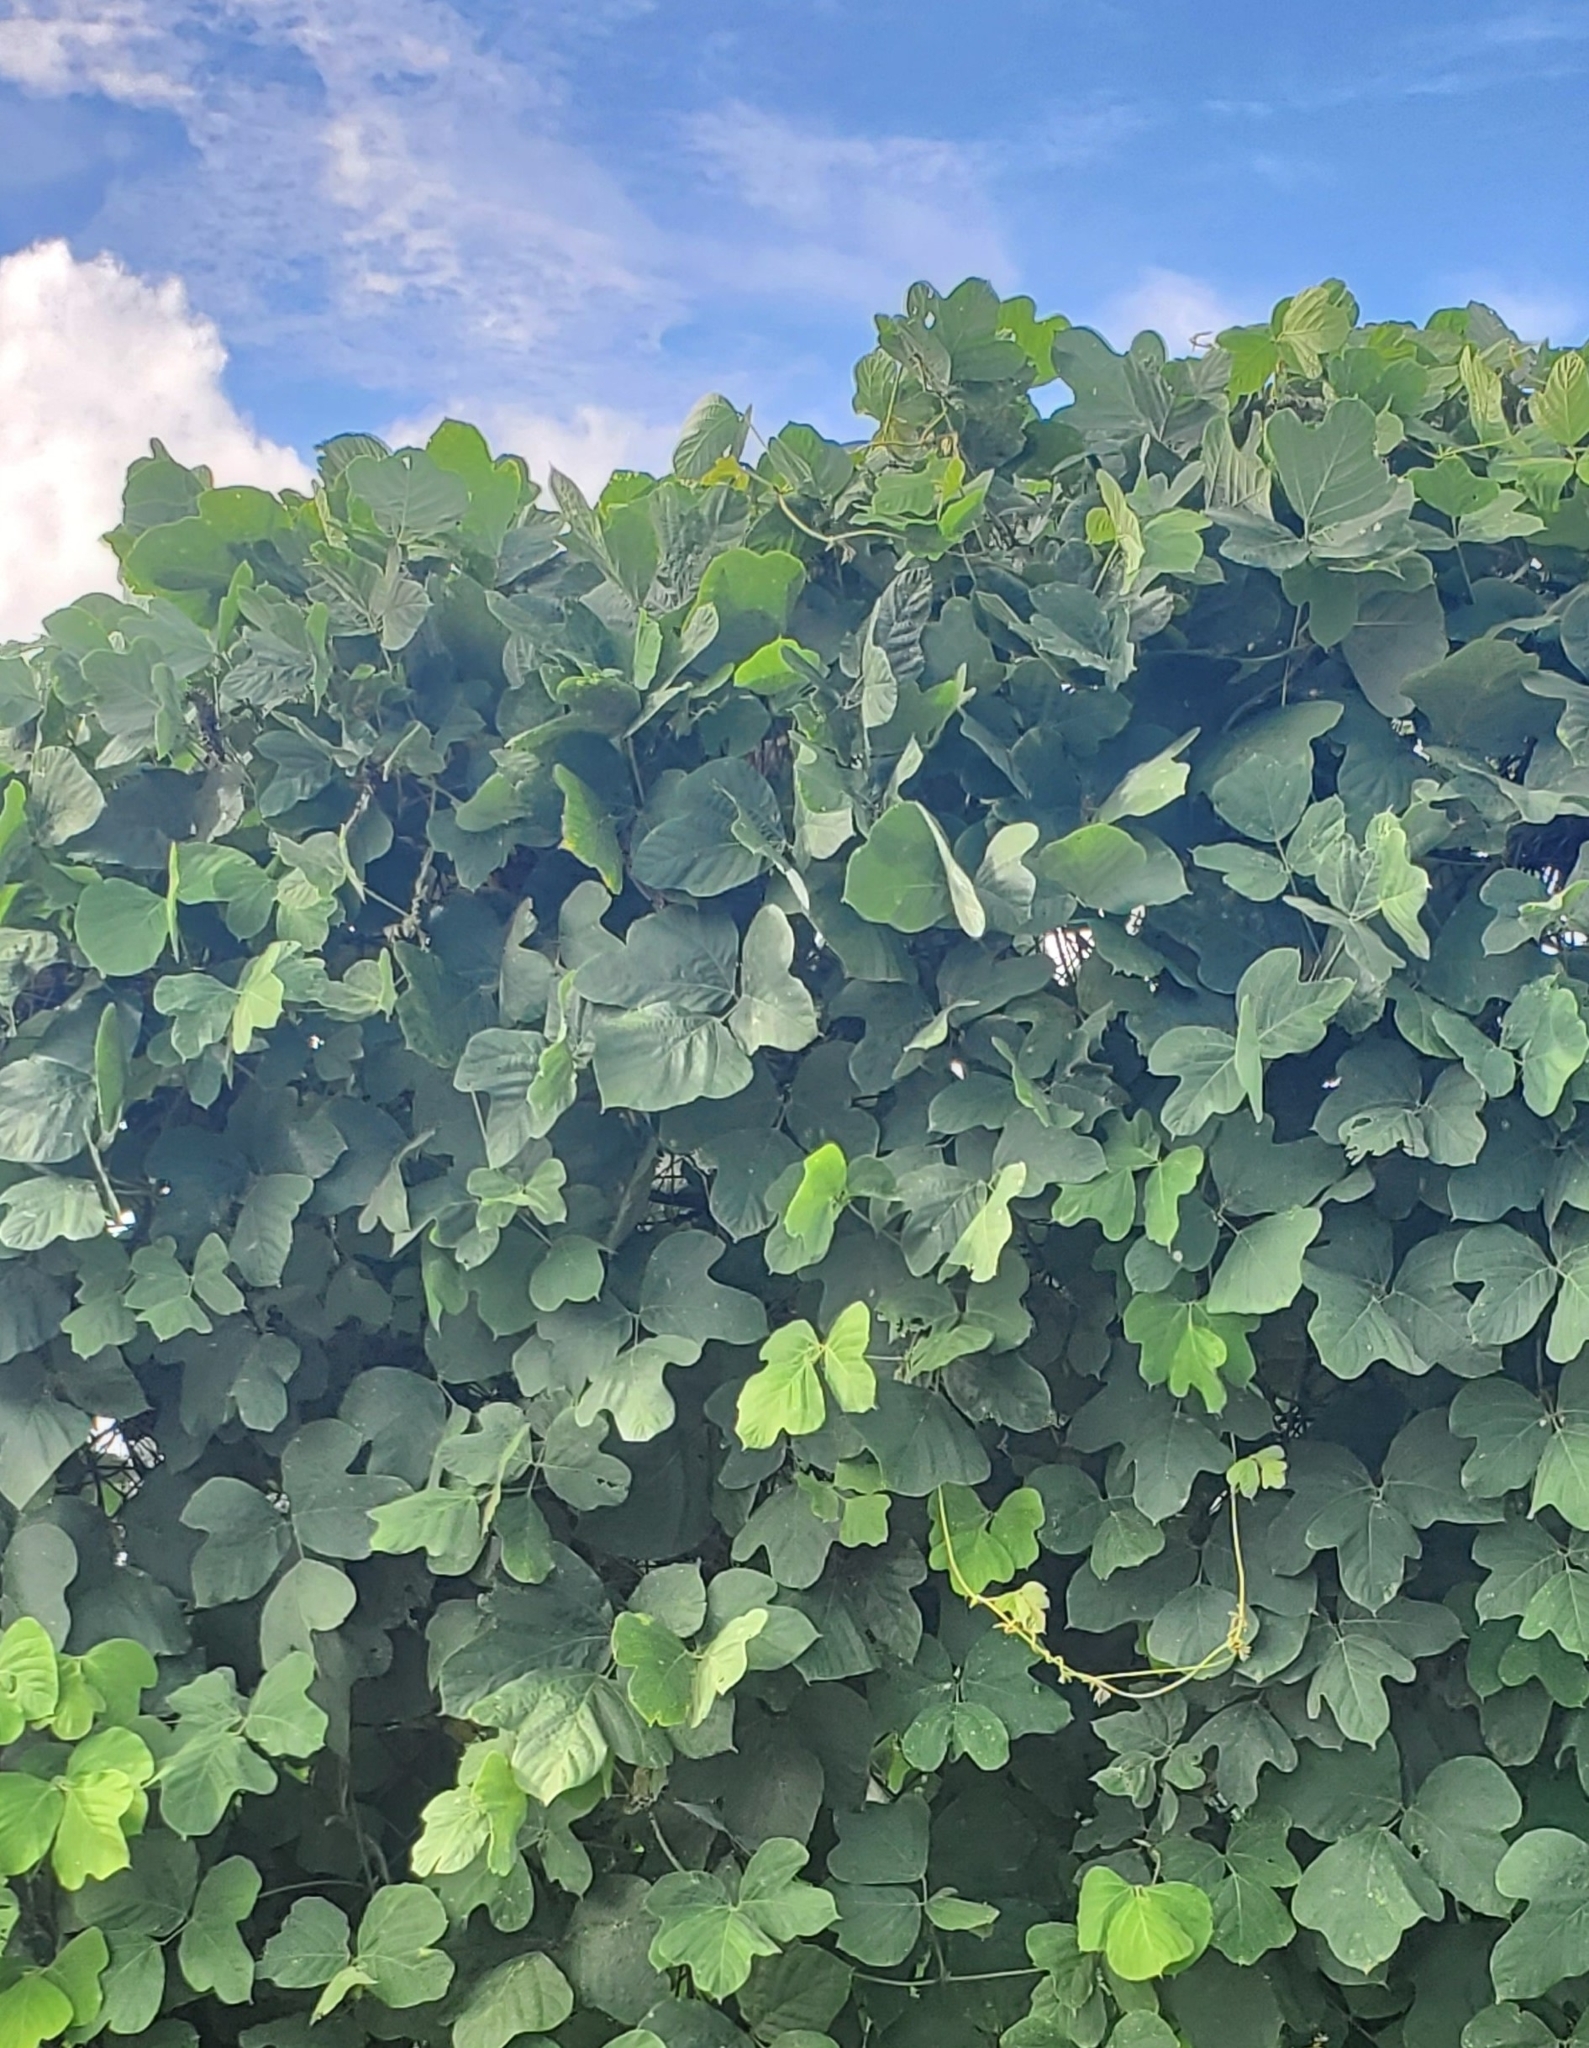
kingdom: Plantae
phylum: Tracheophyta
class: Magnoliopsida
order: Fabales
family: Fabaceae
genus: Pueraria
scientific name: Pueraria montana
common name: Kudzu
